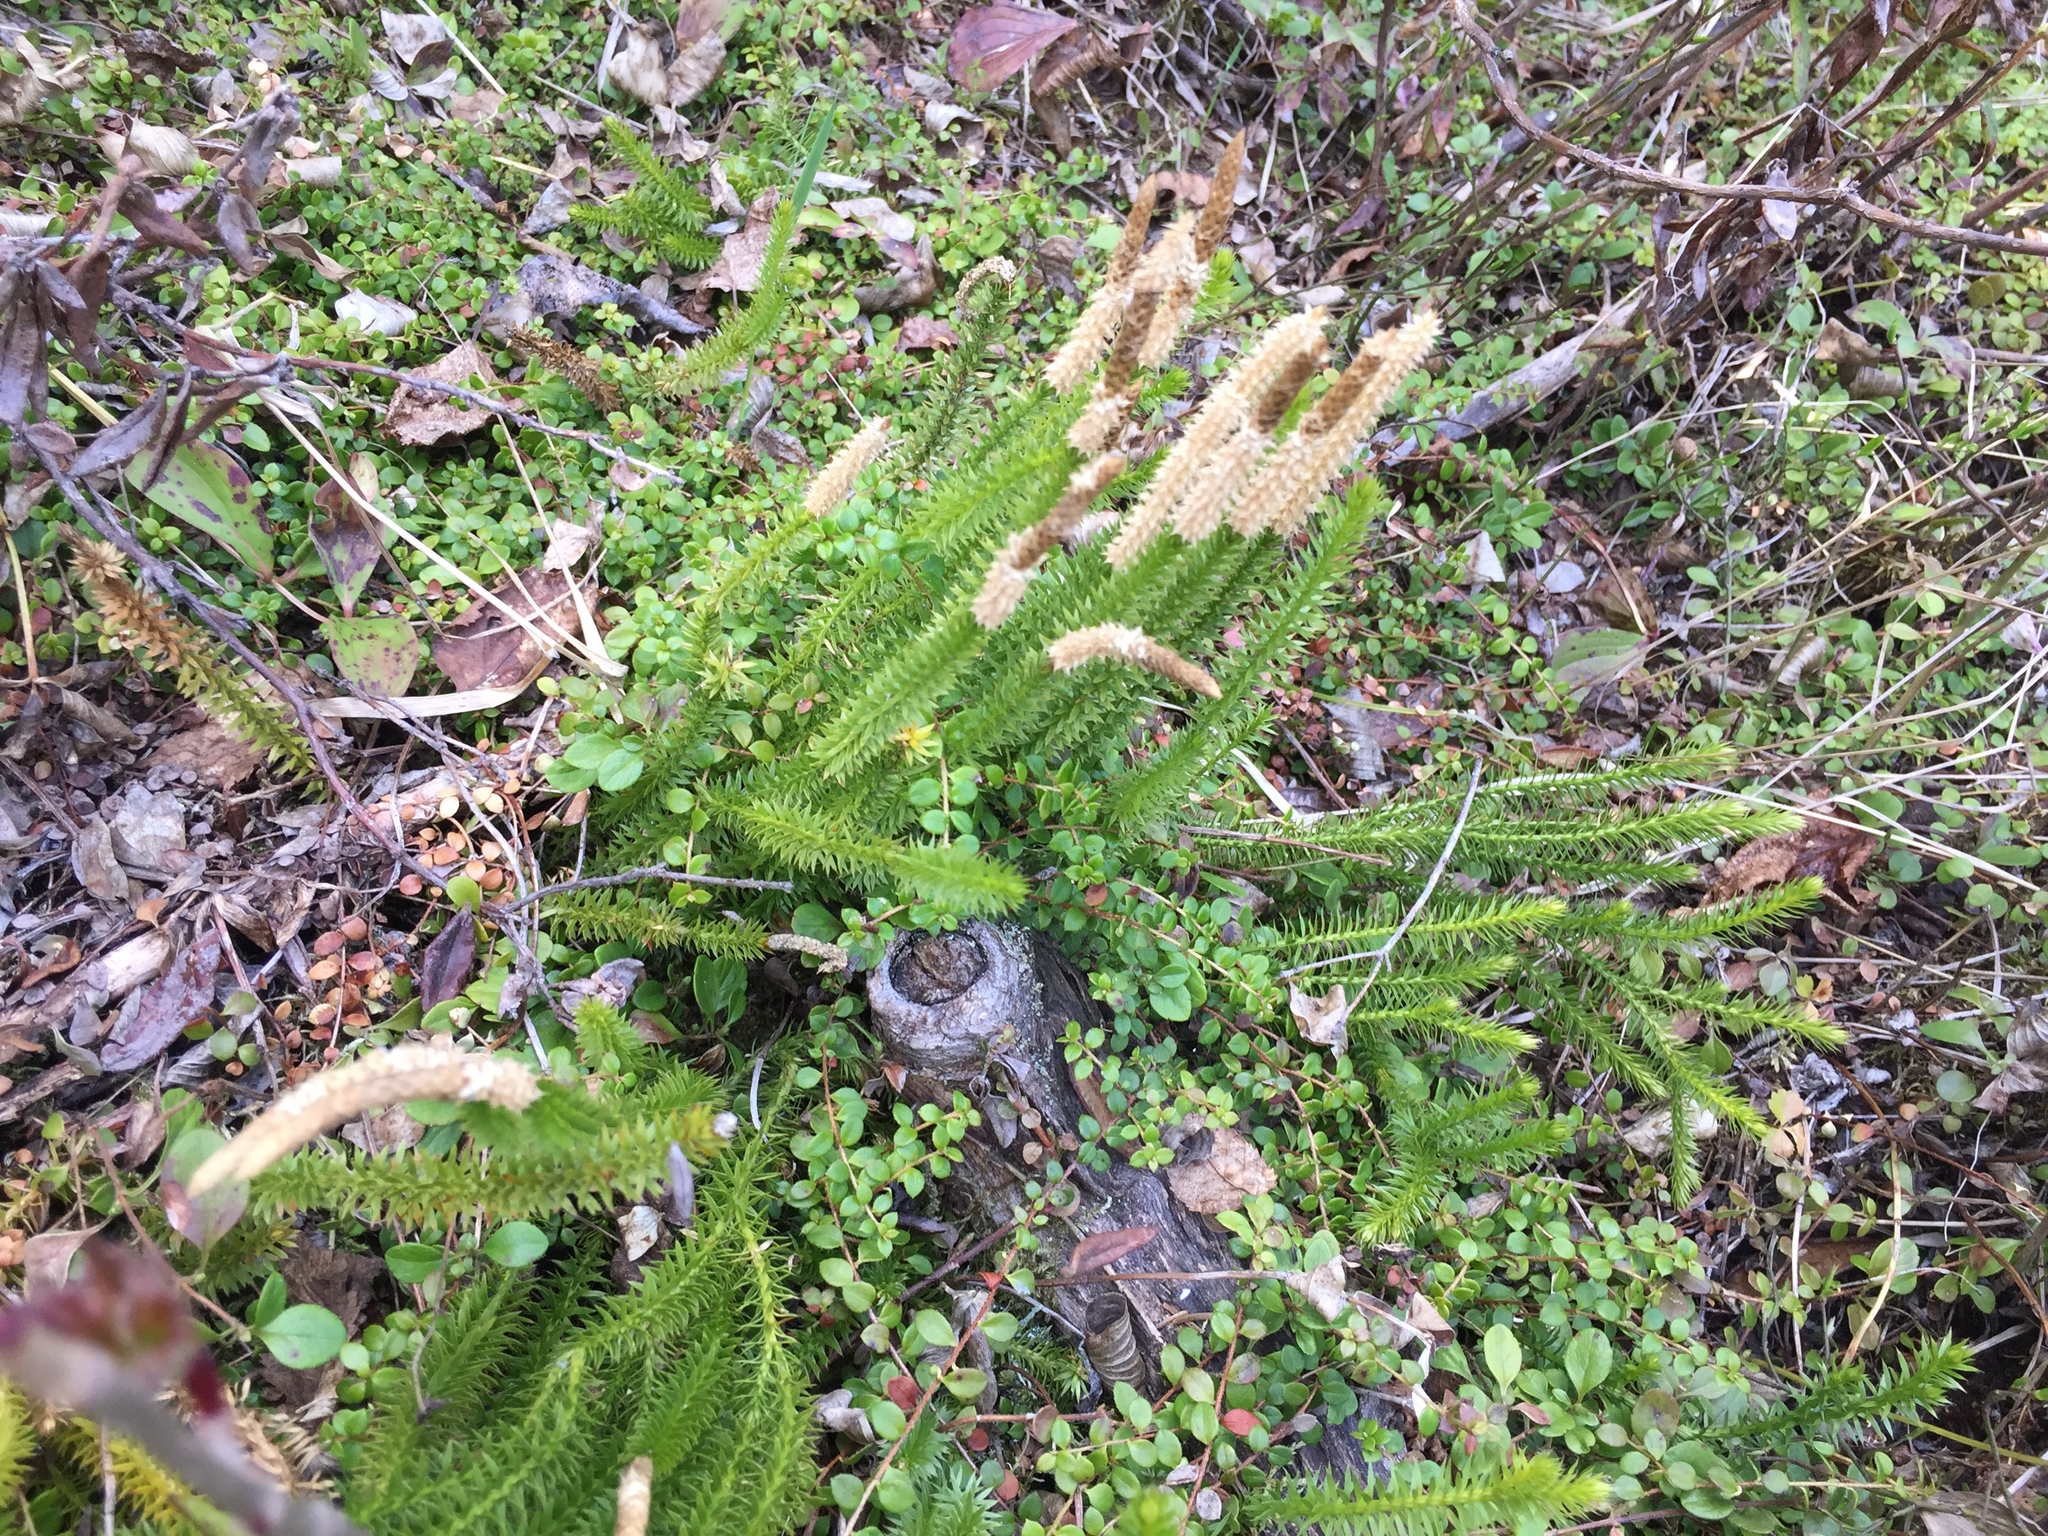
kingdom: Plantae
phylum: Tracheophyta
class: Lycopodiopsida
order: Lycopodiales
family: Lycopodiaceae
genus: Spinulum
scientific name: Spinulum annotinum
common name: Interrupted club-moss
